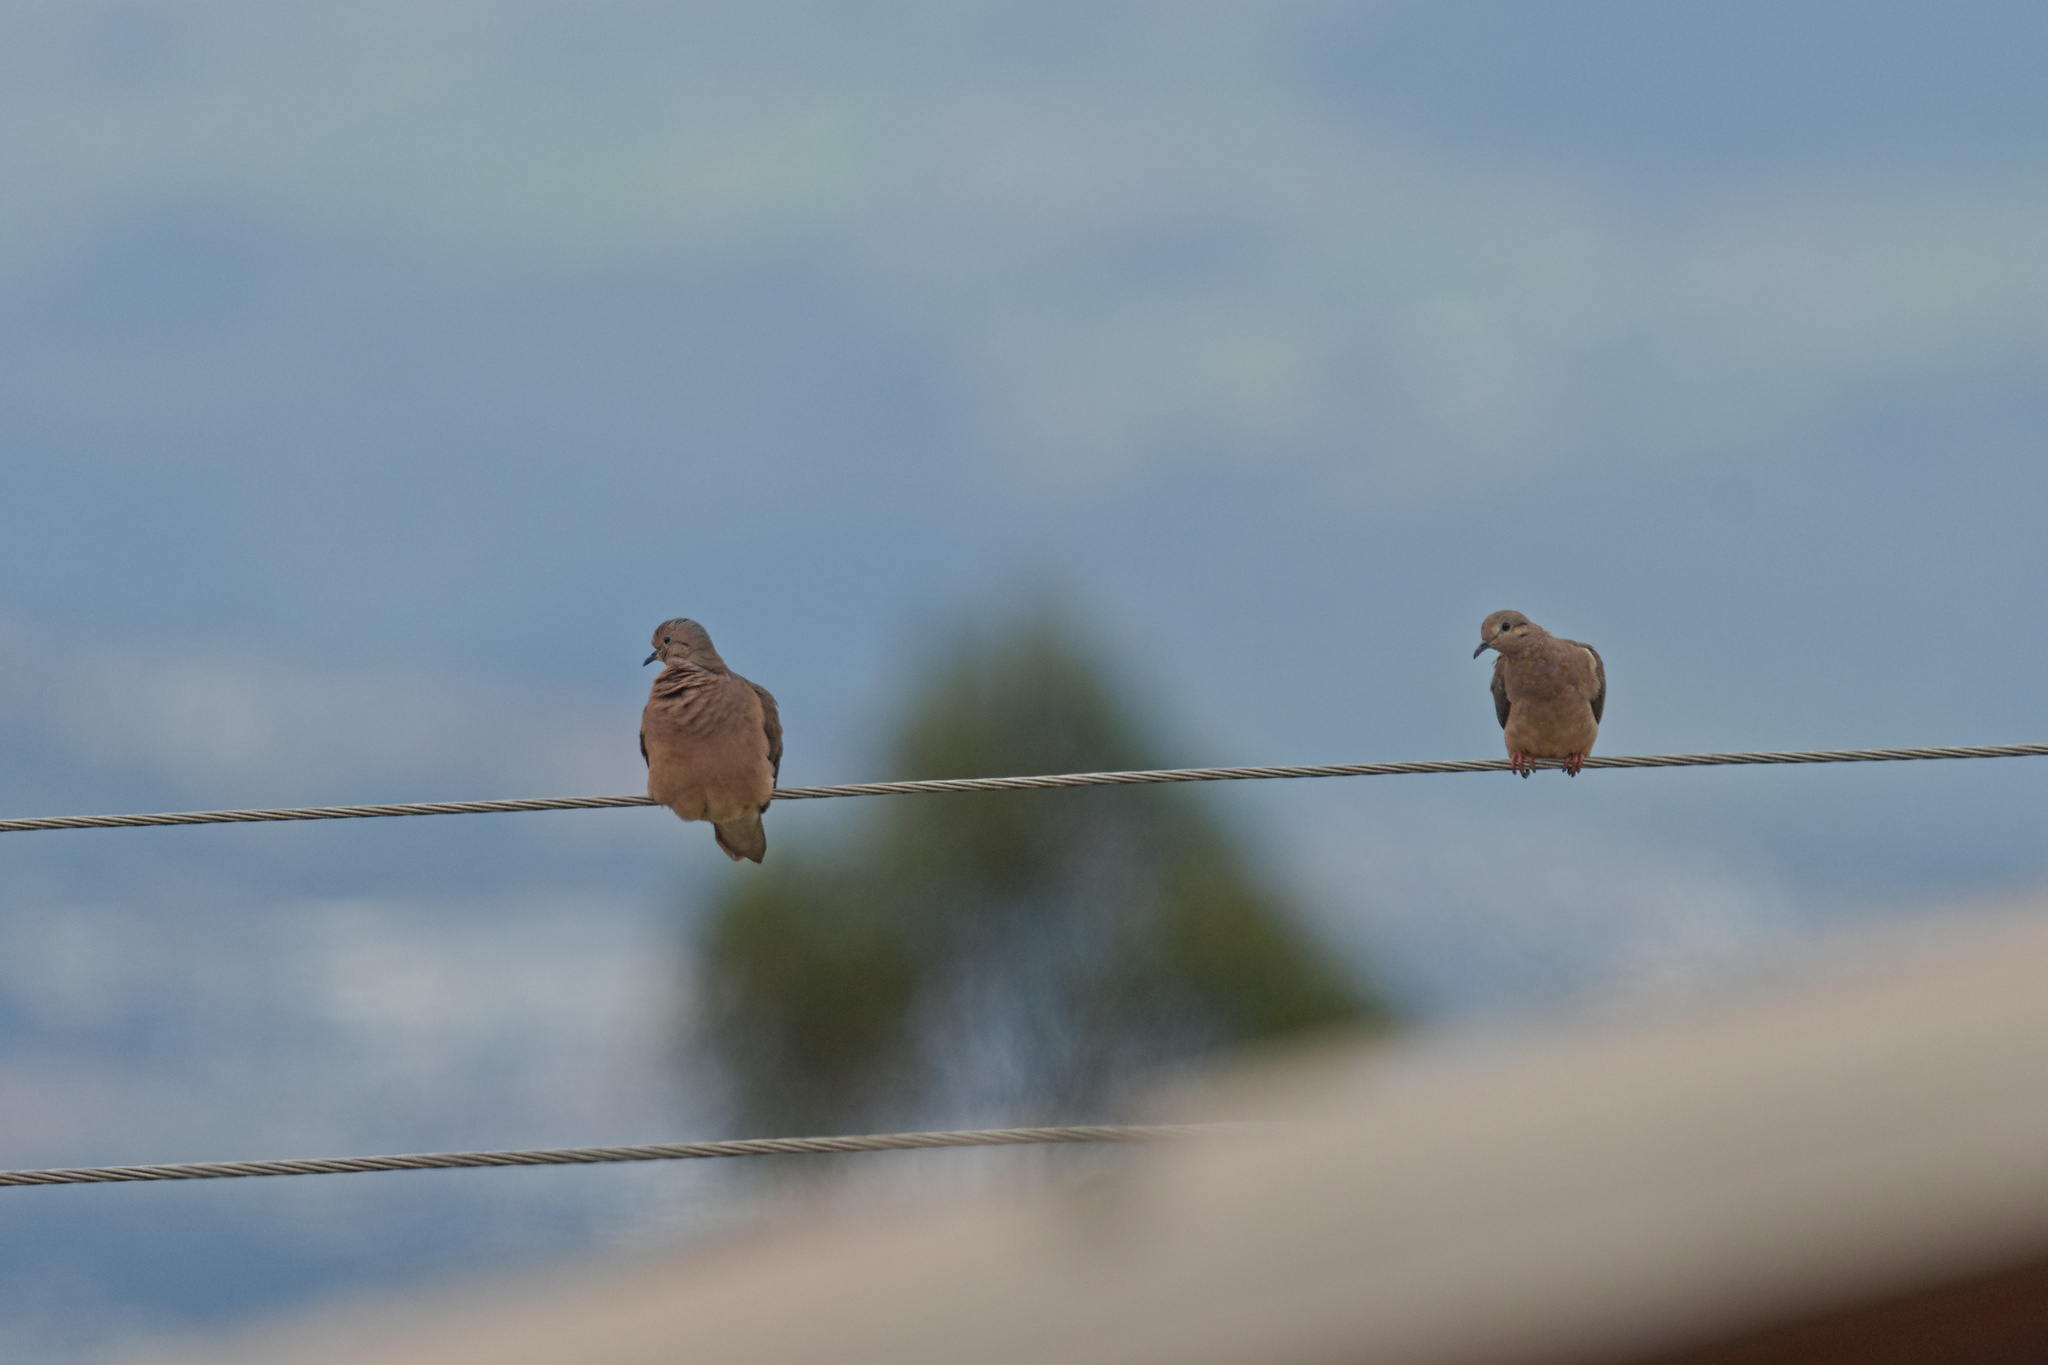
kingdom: Animalia
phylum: Chordata
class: Aves
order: Columbiformes
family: Columbidae
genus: Zenaida
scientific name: Zenaida auriculata
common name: Eared dove
